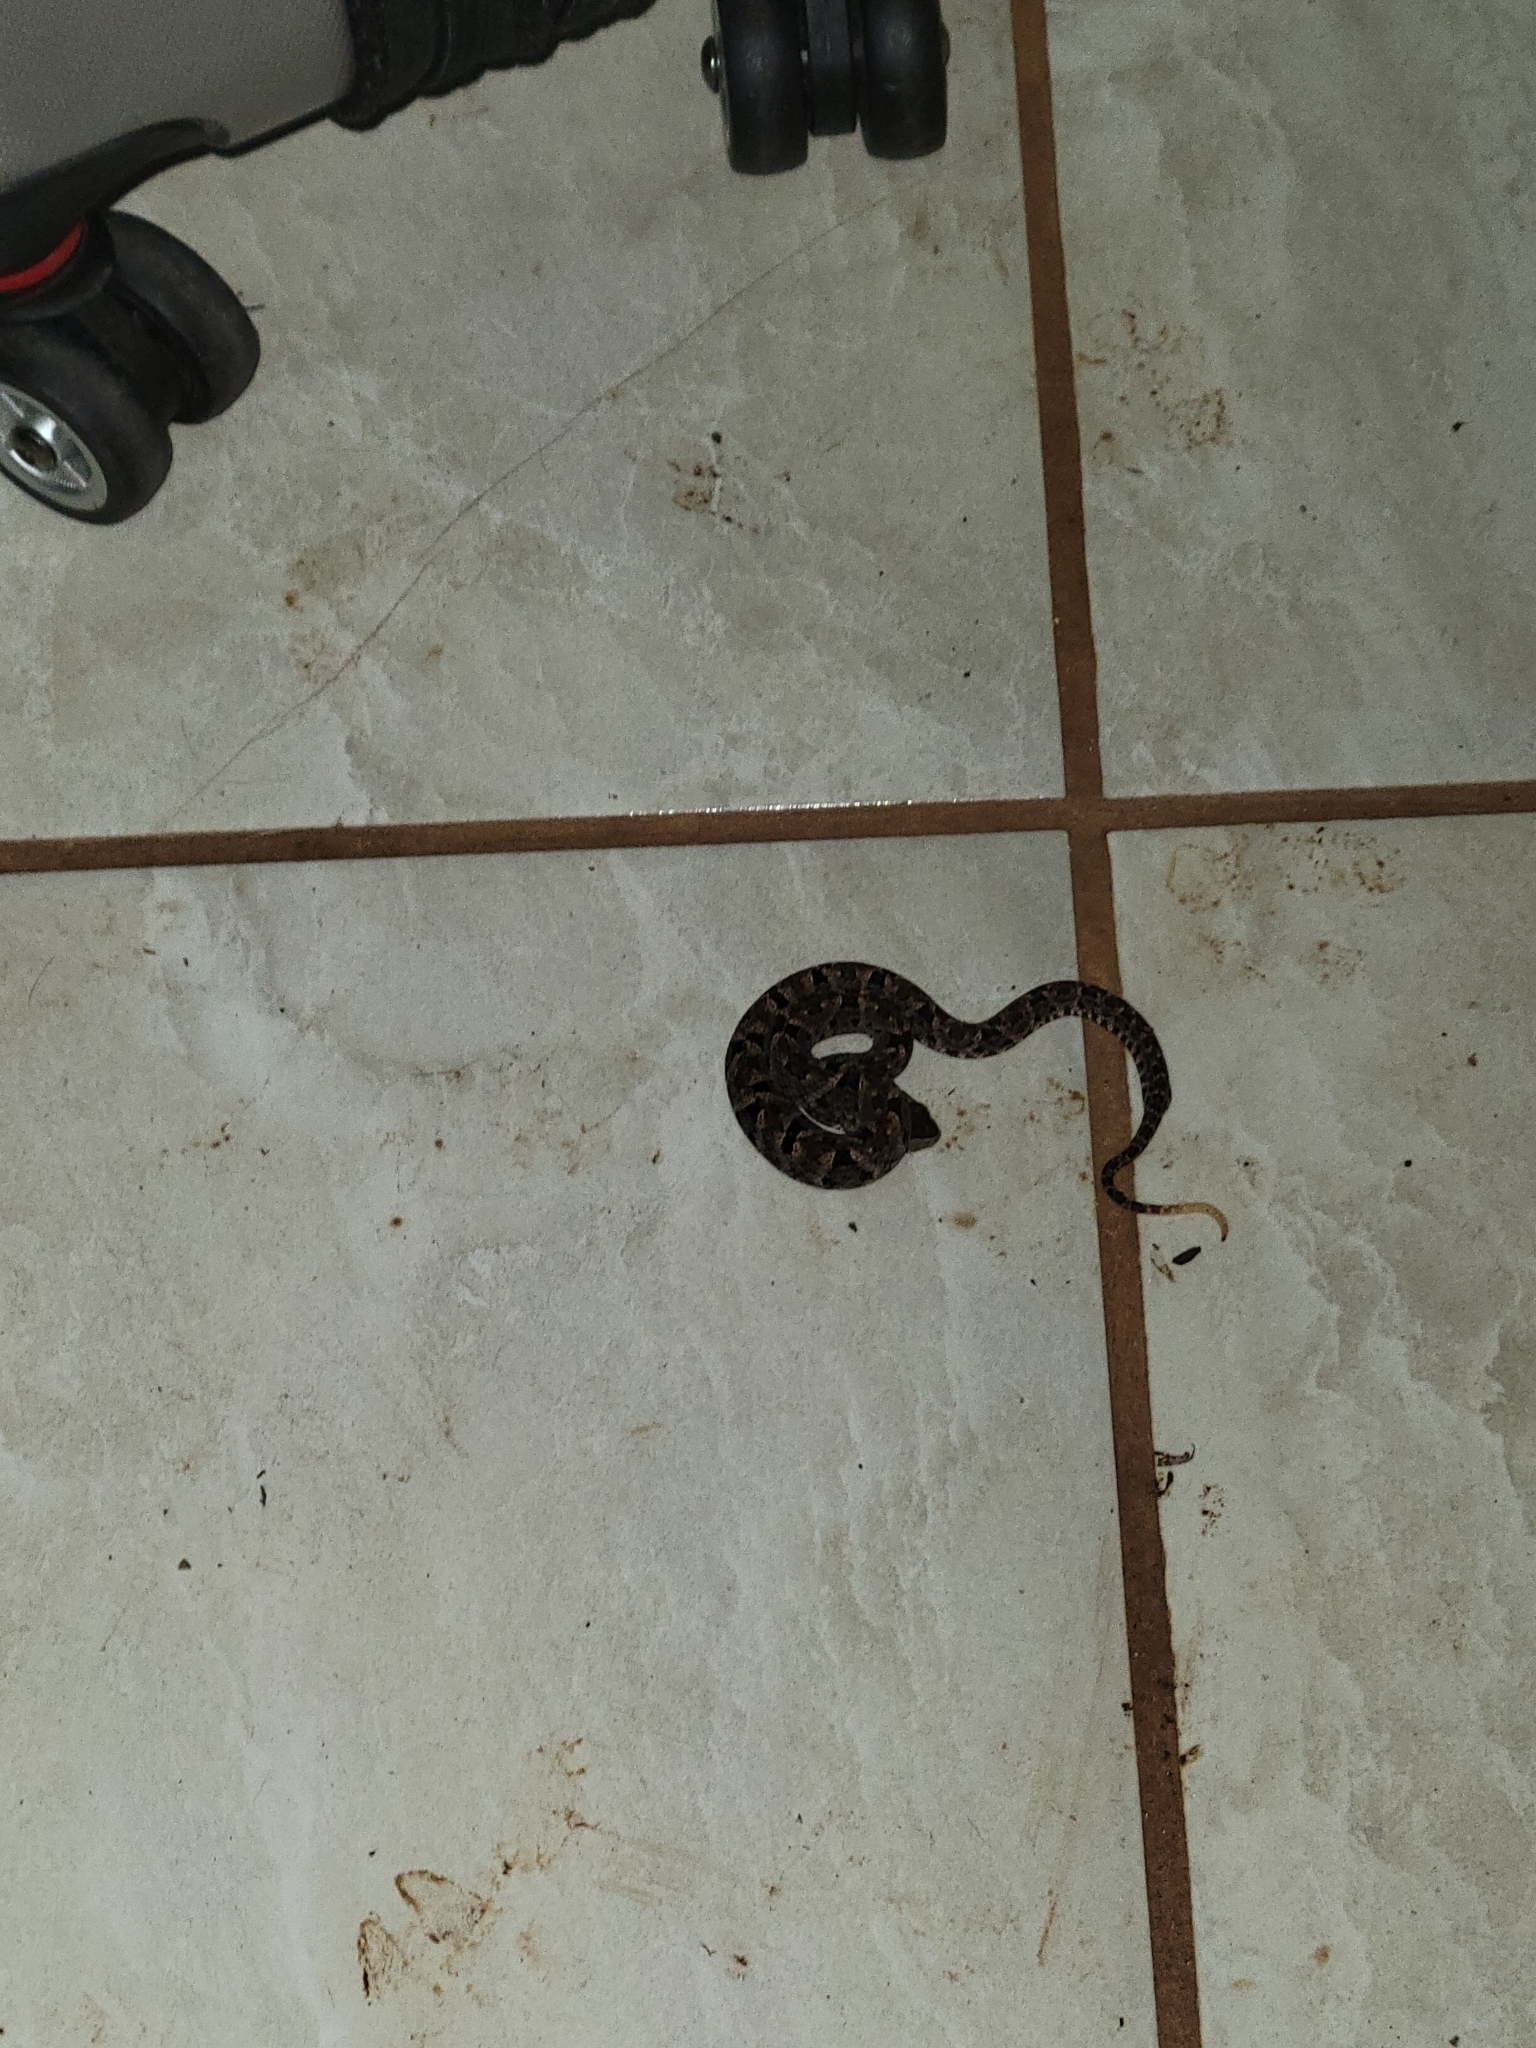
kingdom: Animalia
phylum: Chordata
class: Squamata
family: Viperidae
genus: Bothrops
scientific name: Bothrops asper
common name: Terciopelo
